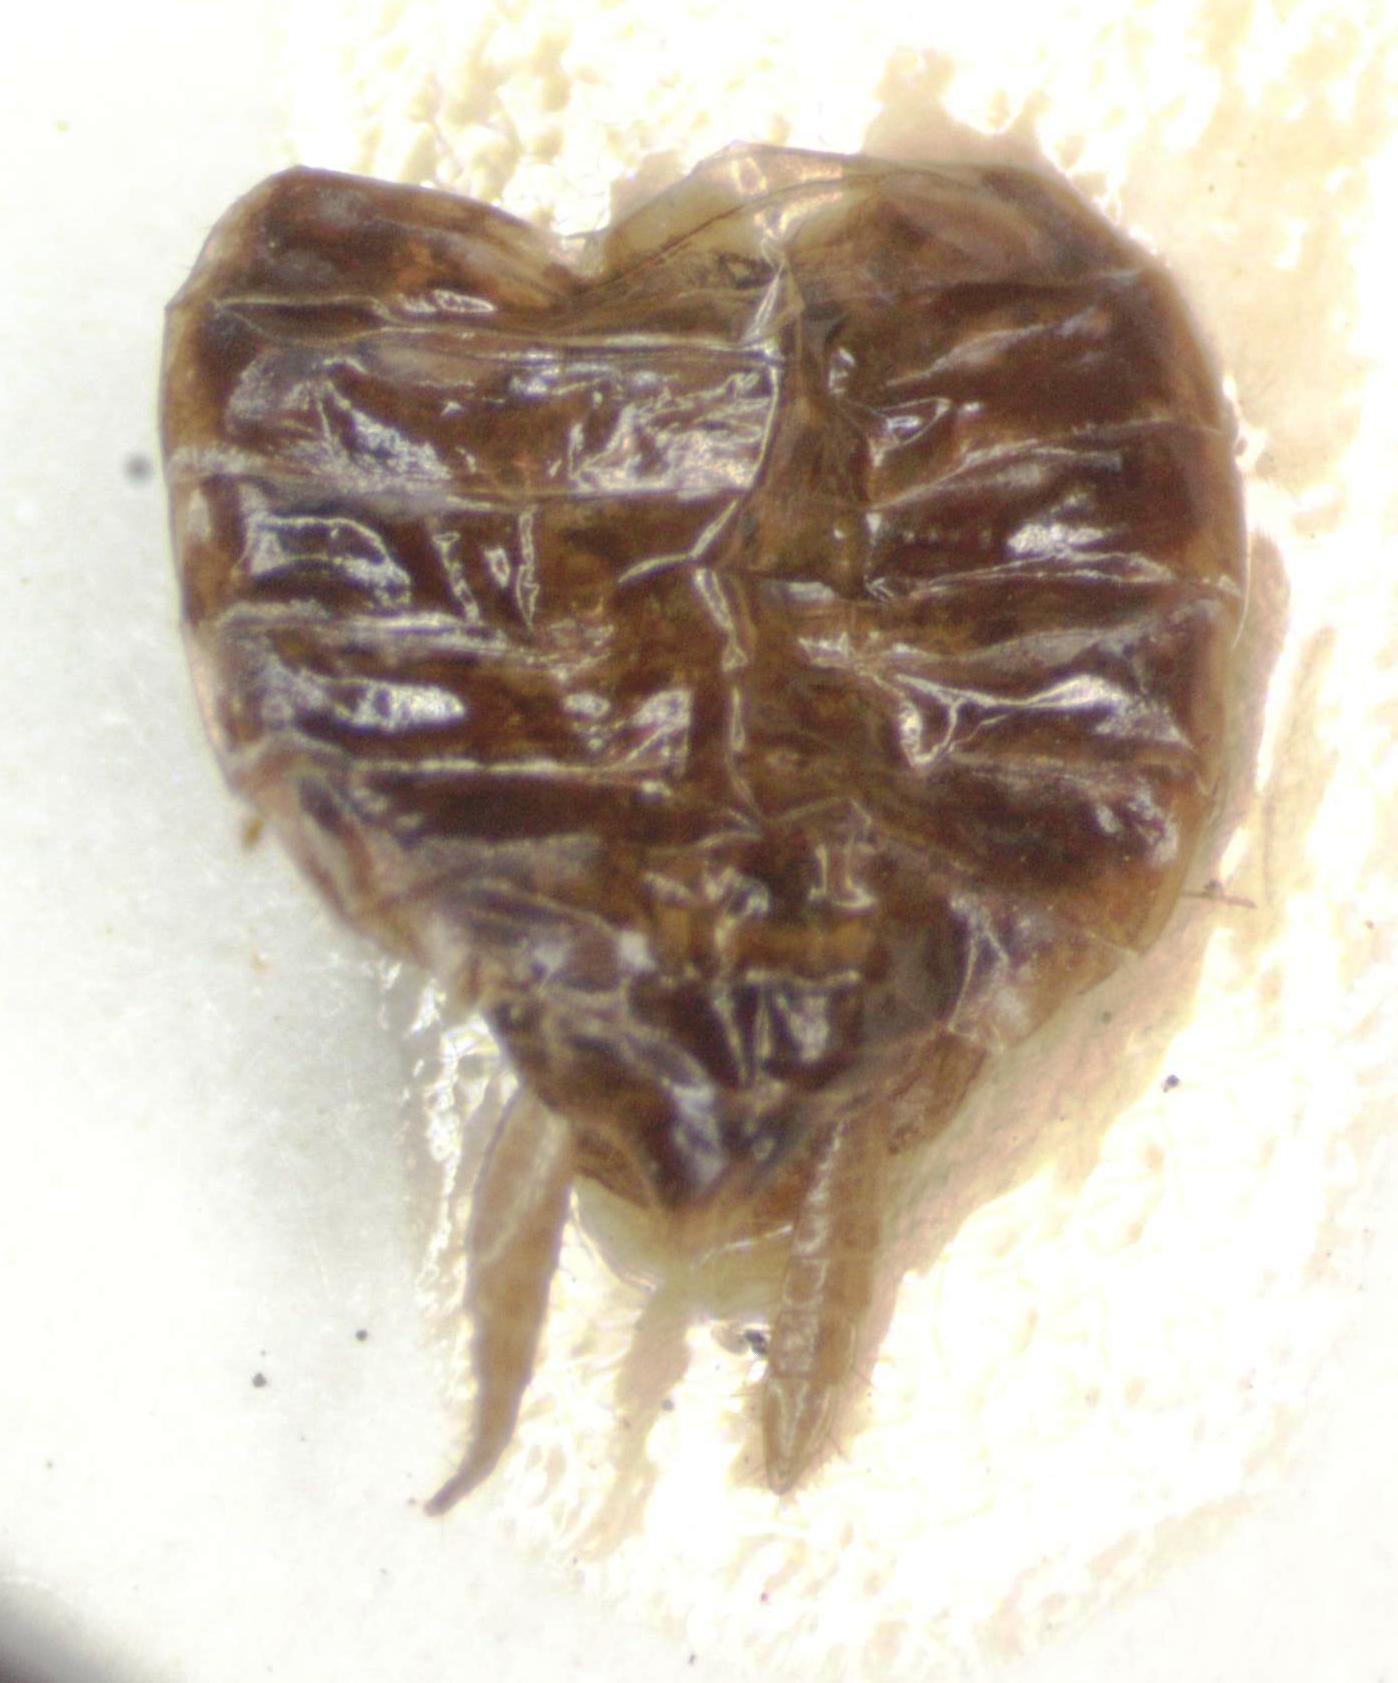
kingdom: Animalia
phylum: Arthropoda
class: Insecta
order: Blattodea
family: Ectobiidae
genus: Riatia
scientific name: Riatia fulgida
